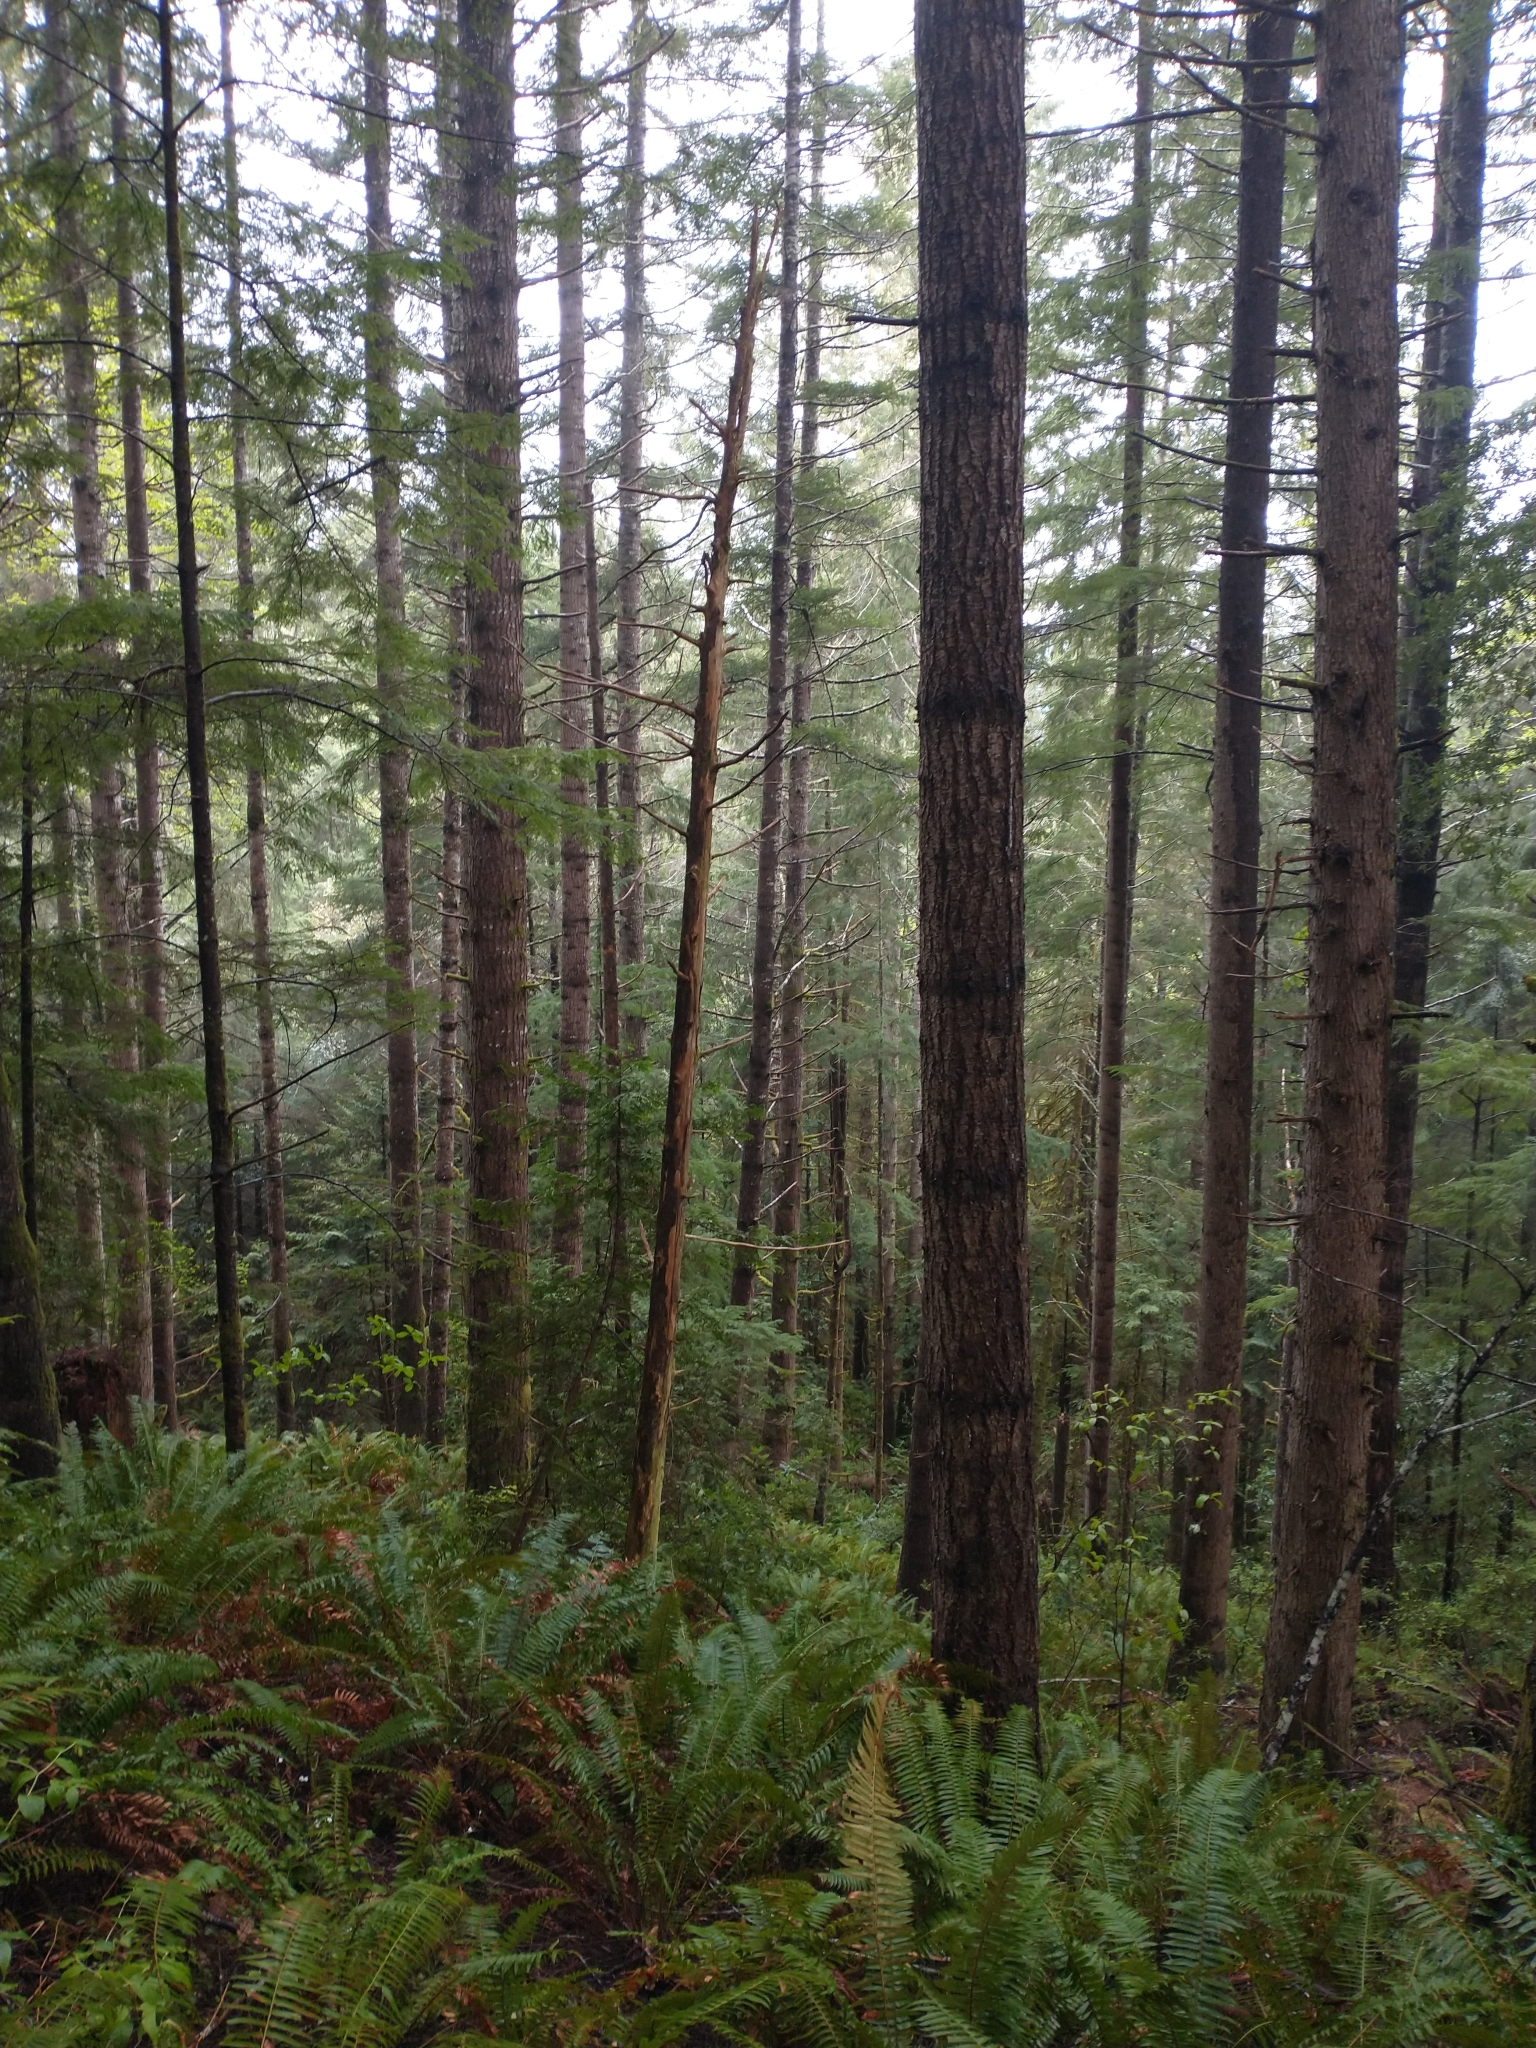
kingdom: Plantae
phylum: Tracheophyta
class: Polypodiopsida
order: Polypodiales
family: Dryopteridaceae
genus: Polystichum
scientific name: Polystichum munitum
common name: Western sword-fern
